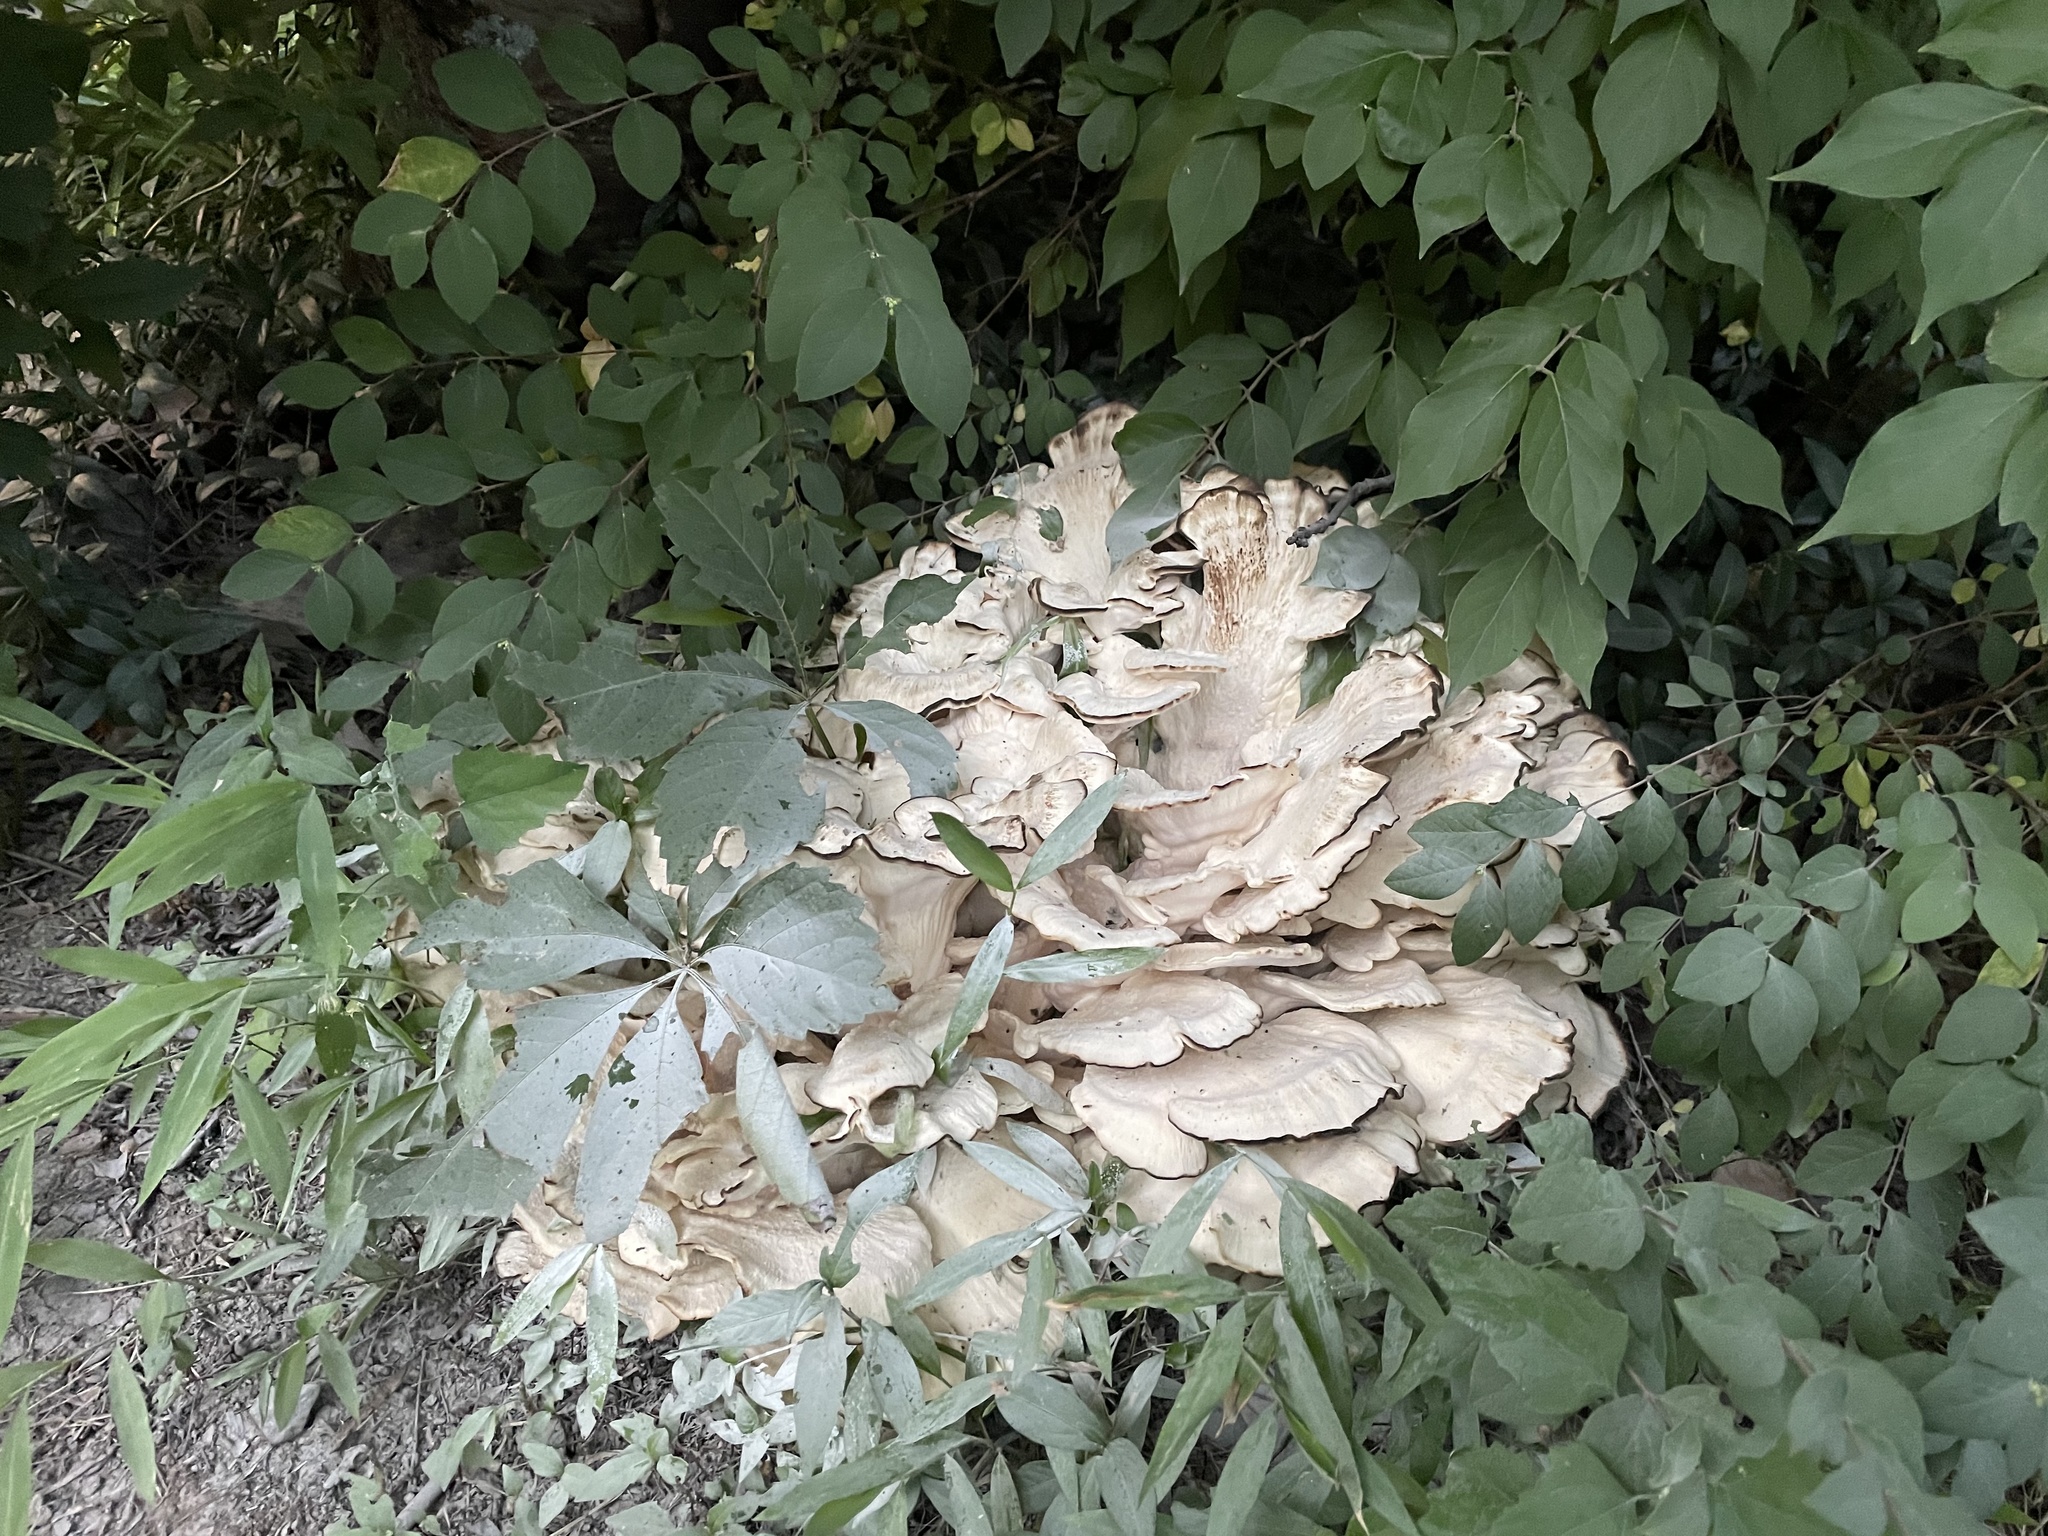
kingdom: Fungi
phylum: Basidiomycota
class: Agaricomycetes
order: Polyporales
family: Meripilaceae
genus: Meripilus
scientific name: Meripilus sumstinei
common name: Black-staining polypore
